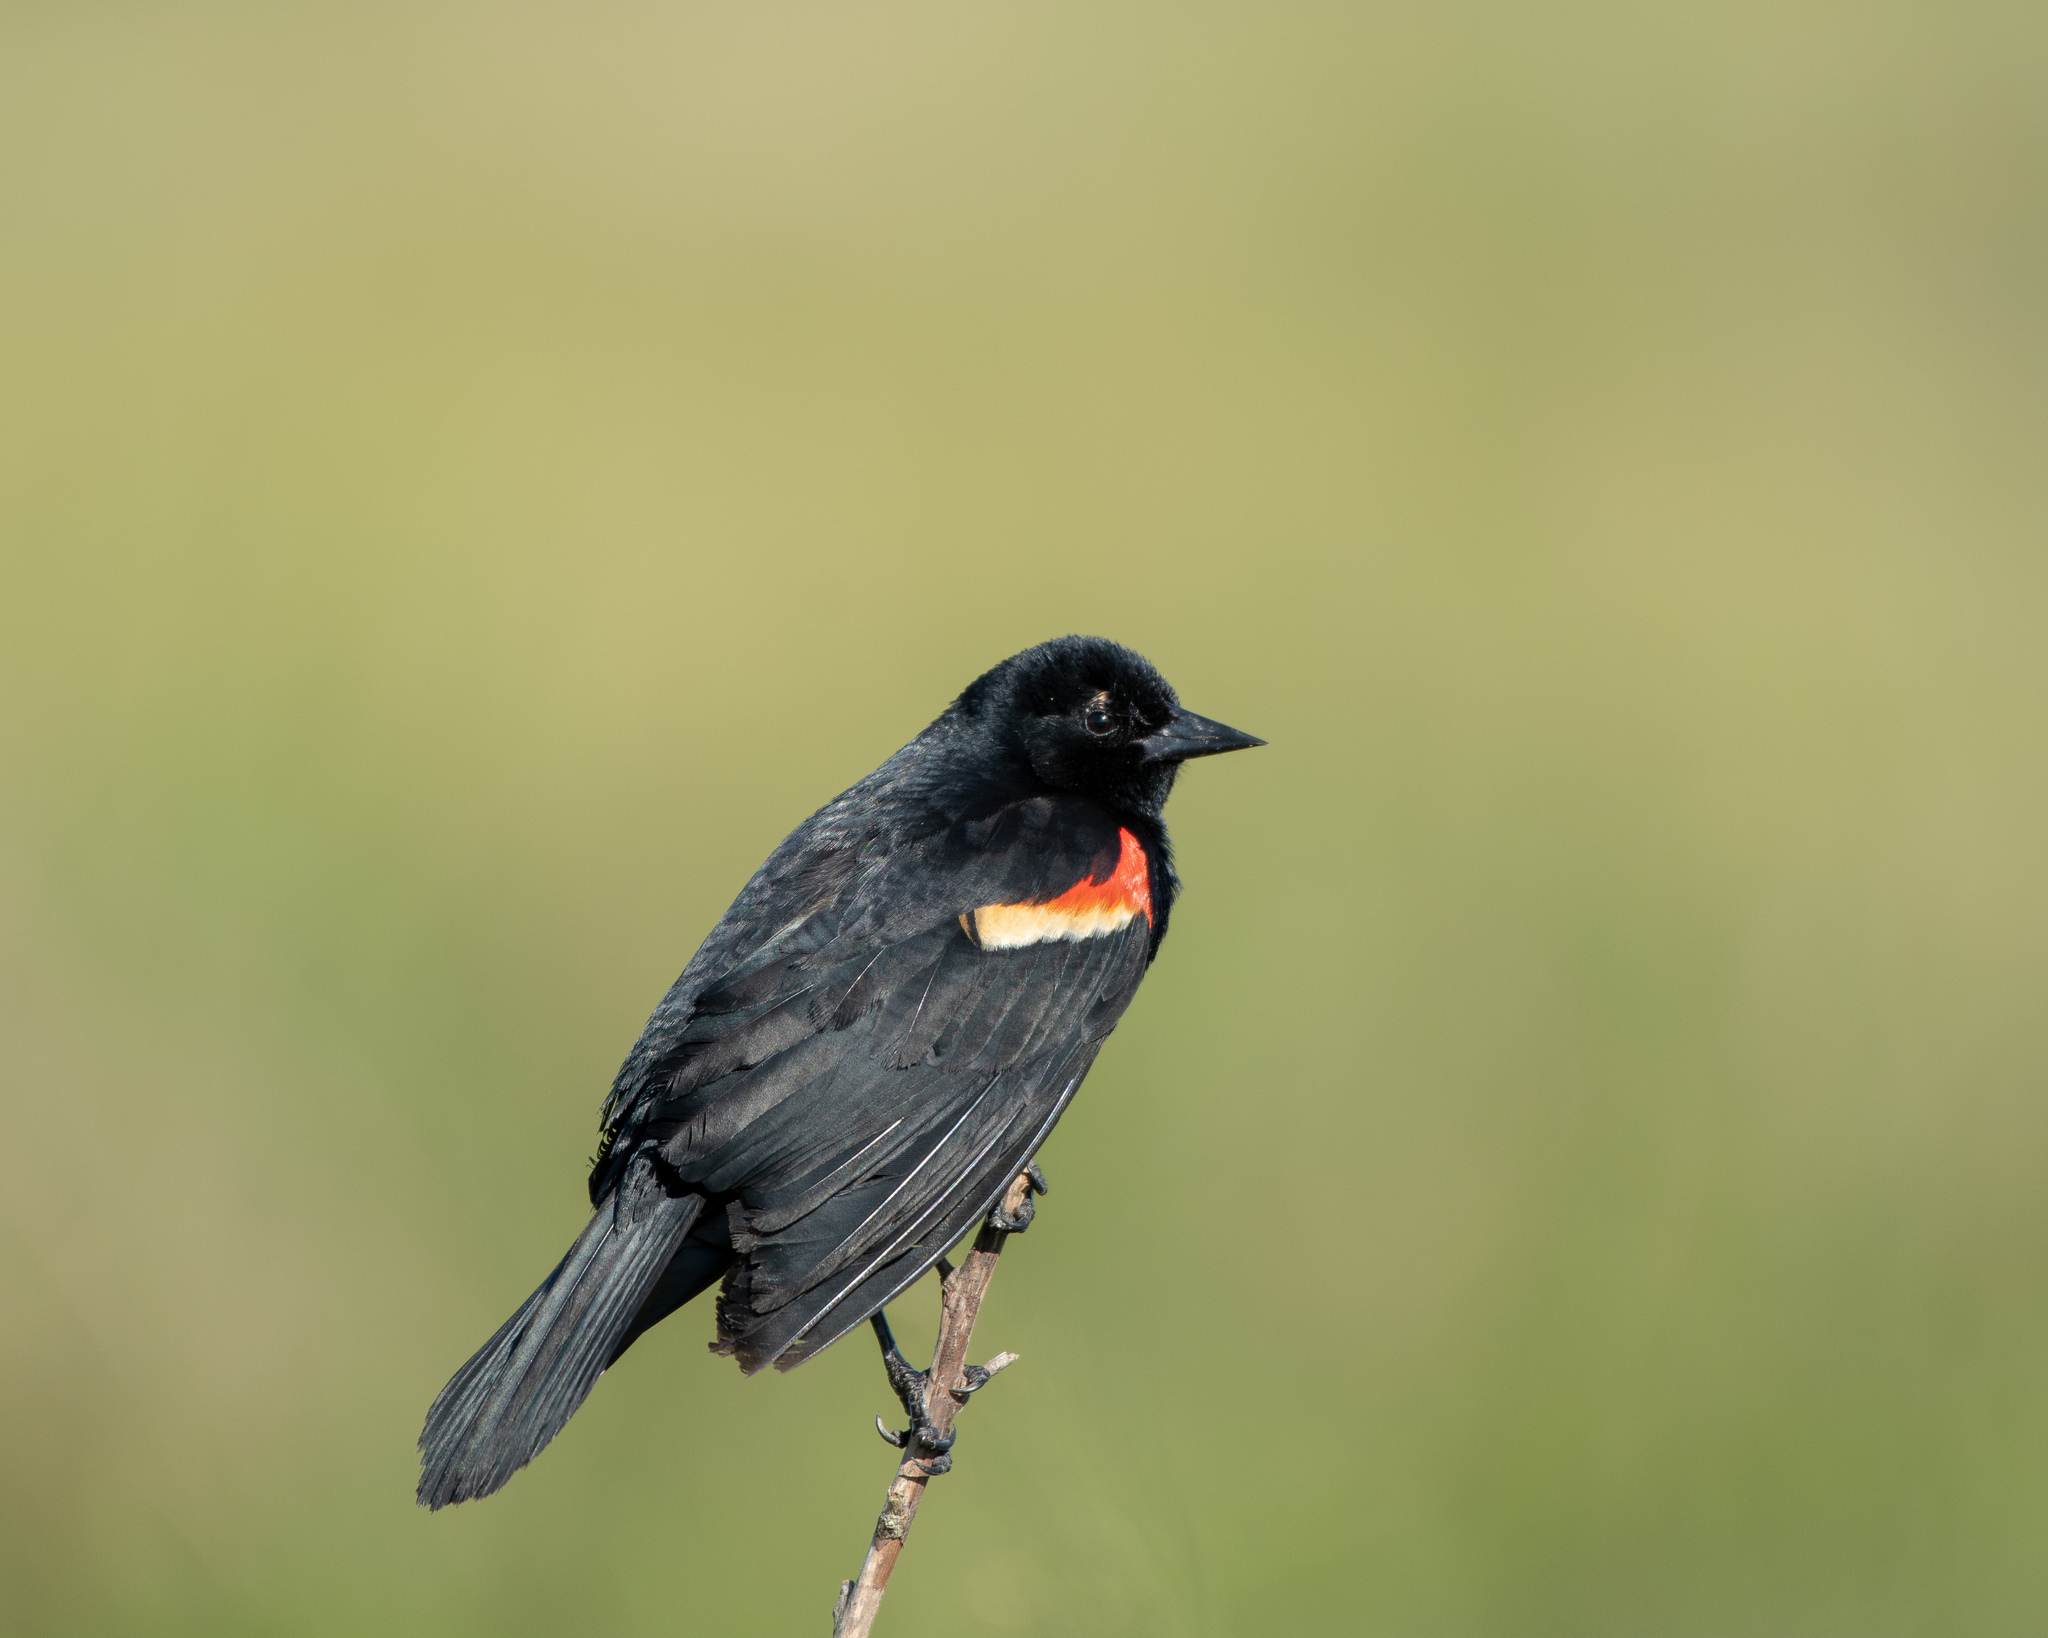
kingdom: Animalia
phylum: Chordata
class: Aves
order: Passeriformes
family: Icteridae
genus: Agelaius
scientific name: Agelaius phoeniceus
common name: Red-winged blackbird
